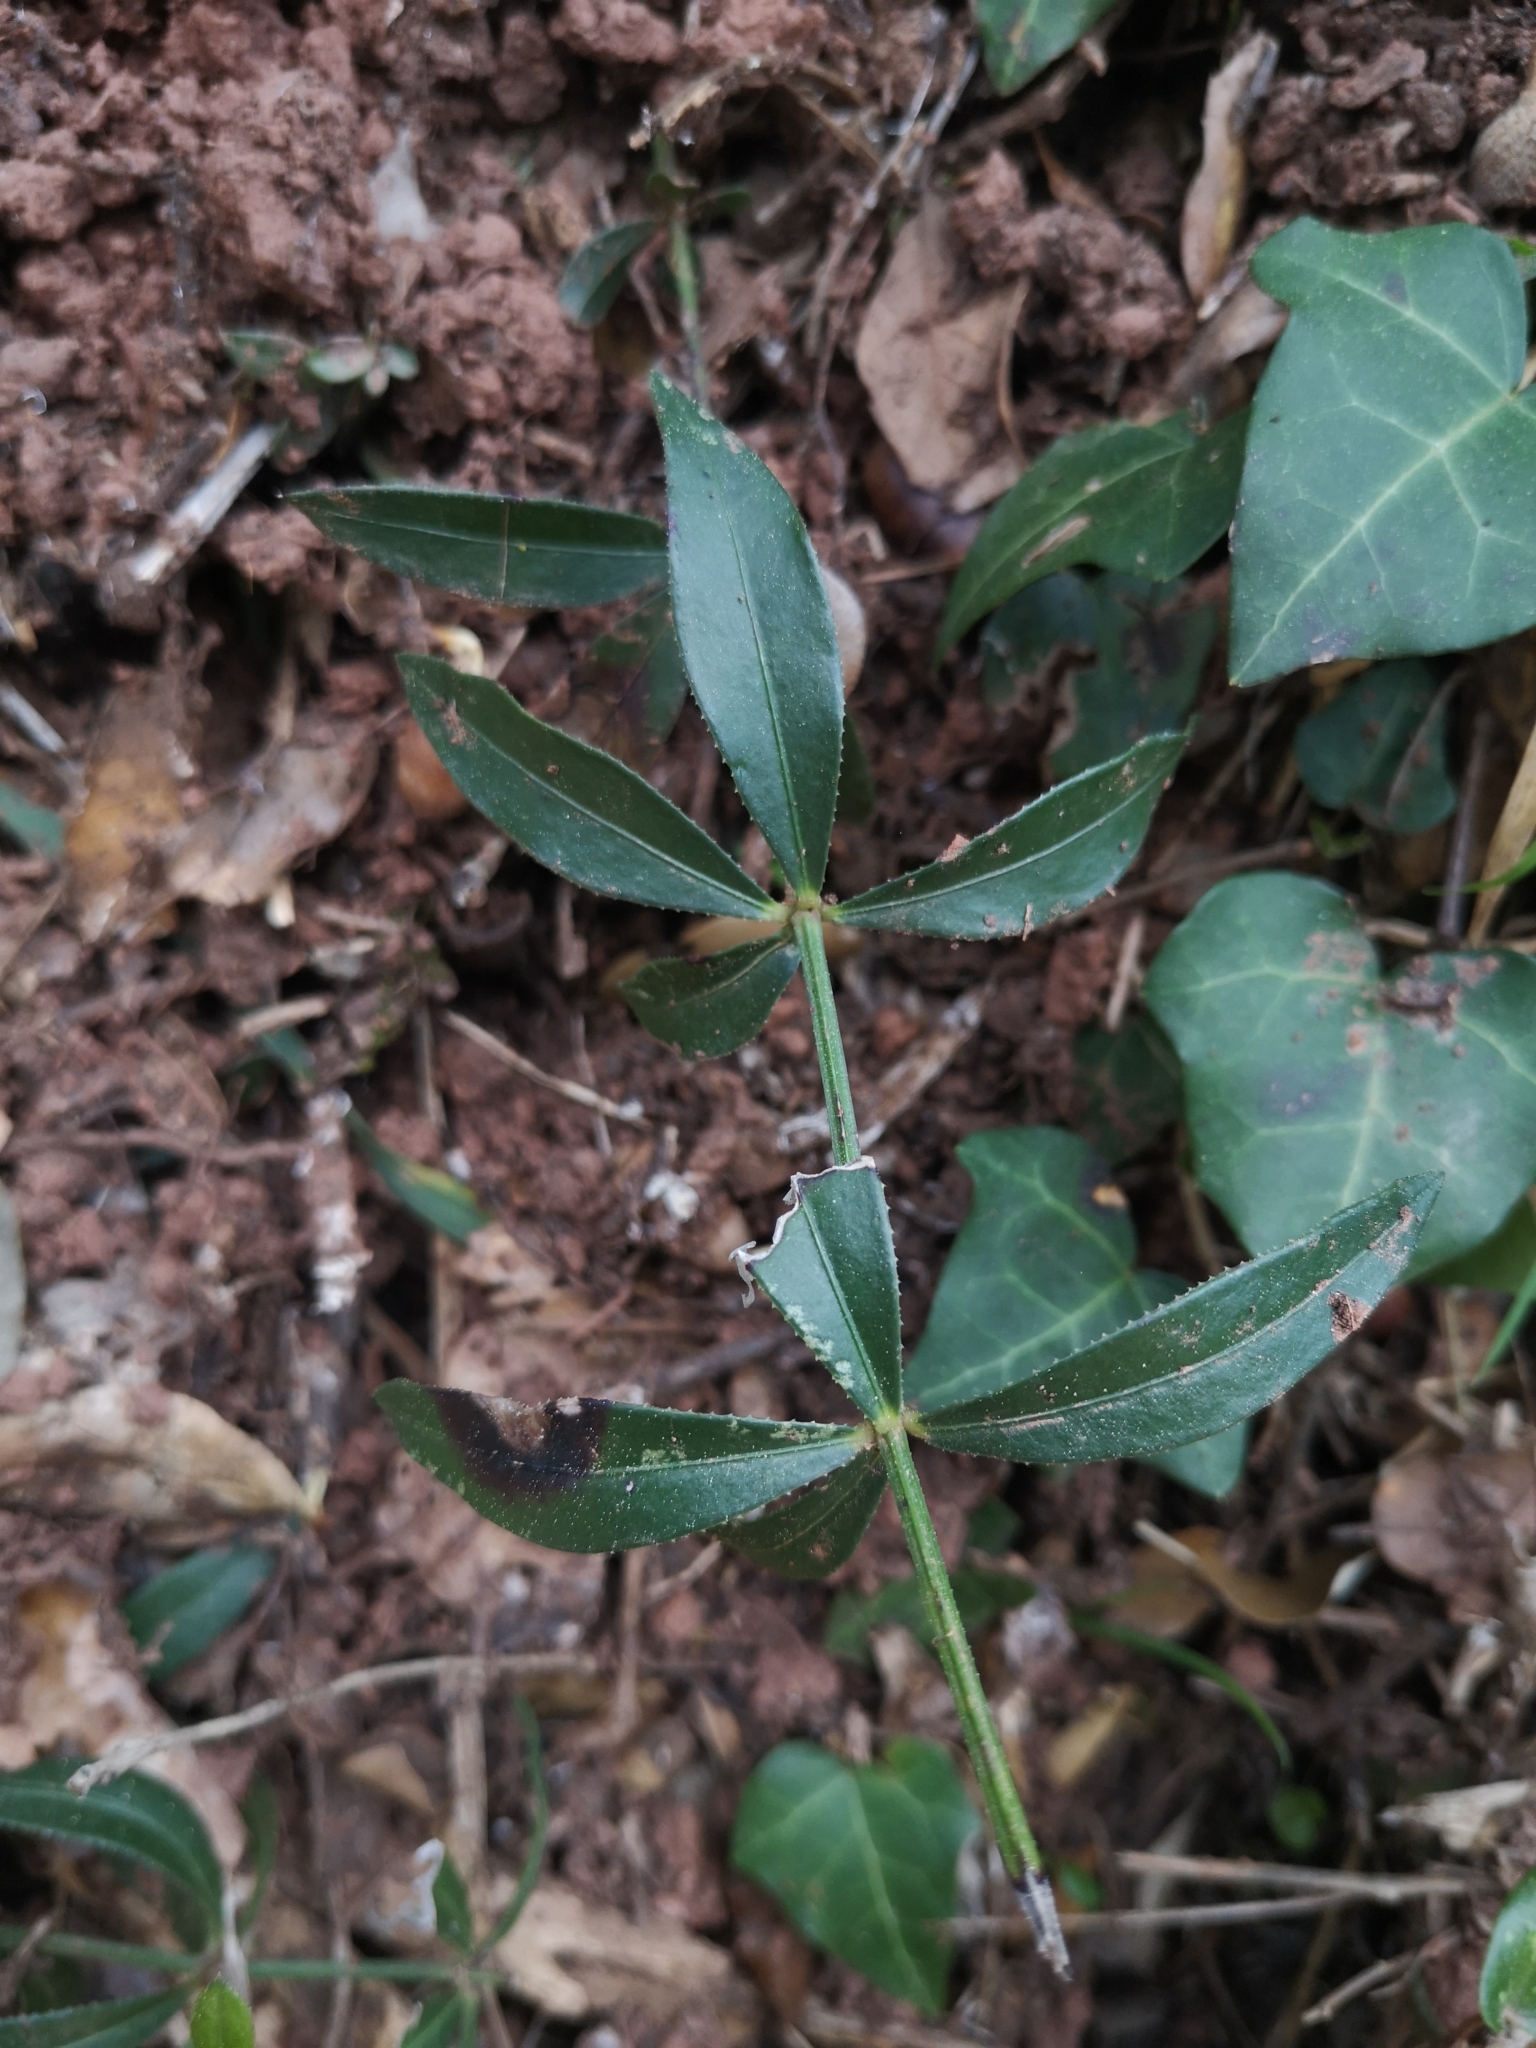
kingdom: Plantae
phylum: Tracheophyta
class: Magnoliopsida
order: Gentianales
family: Rubiaceae
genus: Rubia
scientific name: Rubia peregrina
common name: Wild madder
